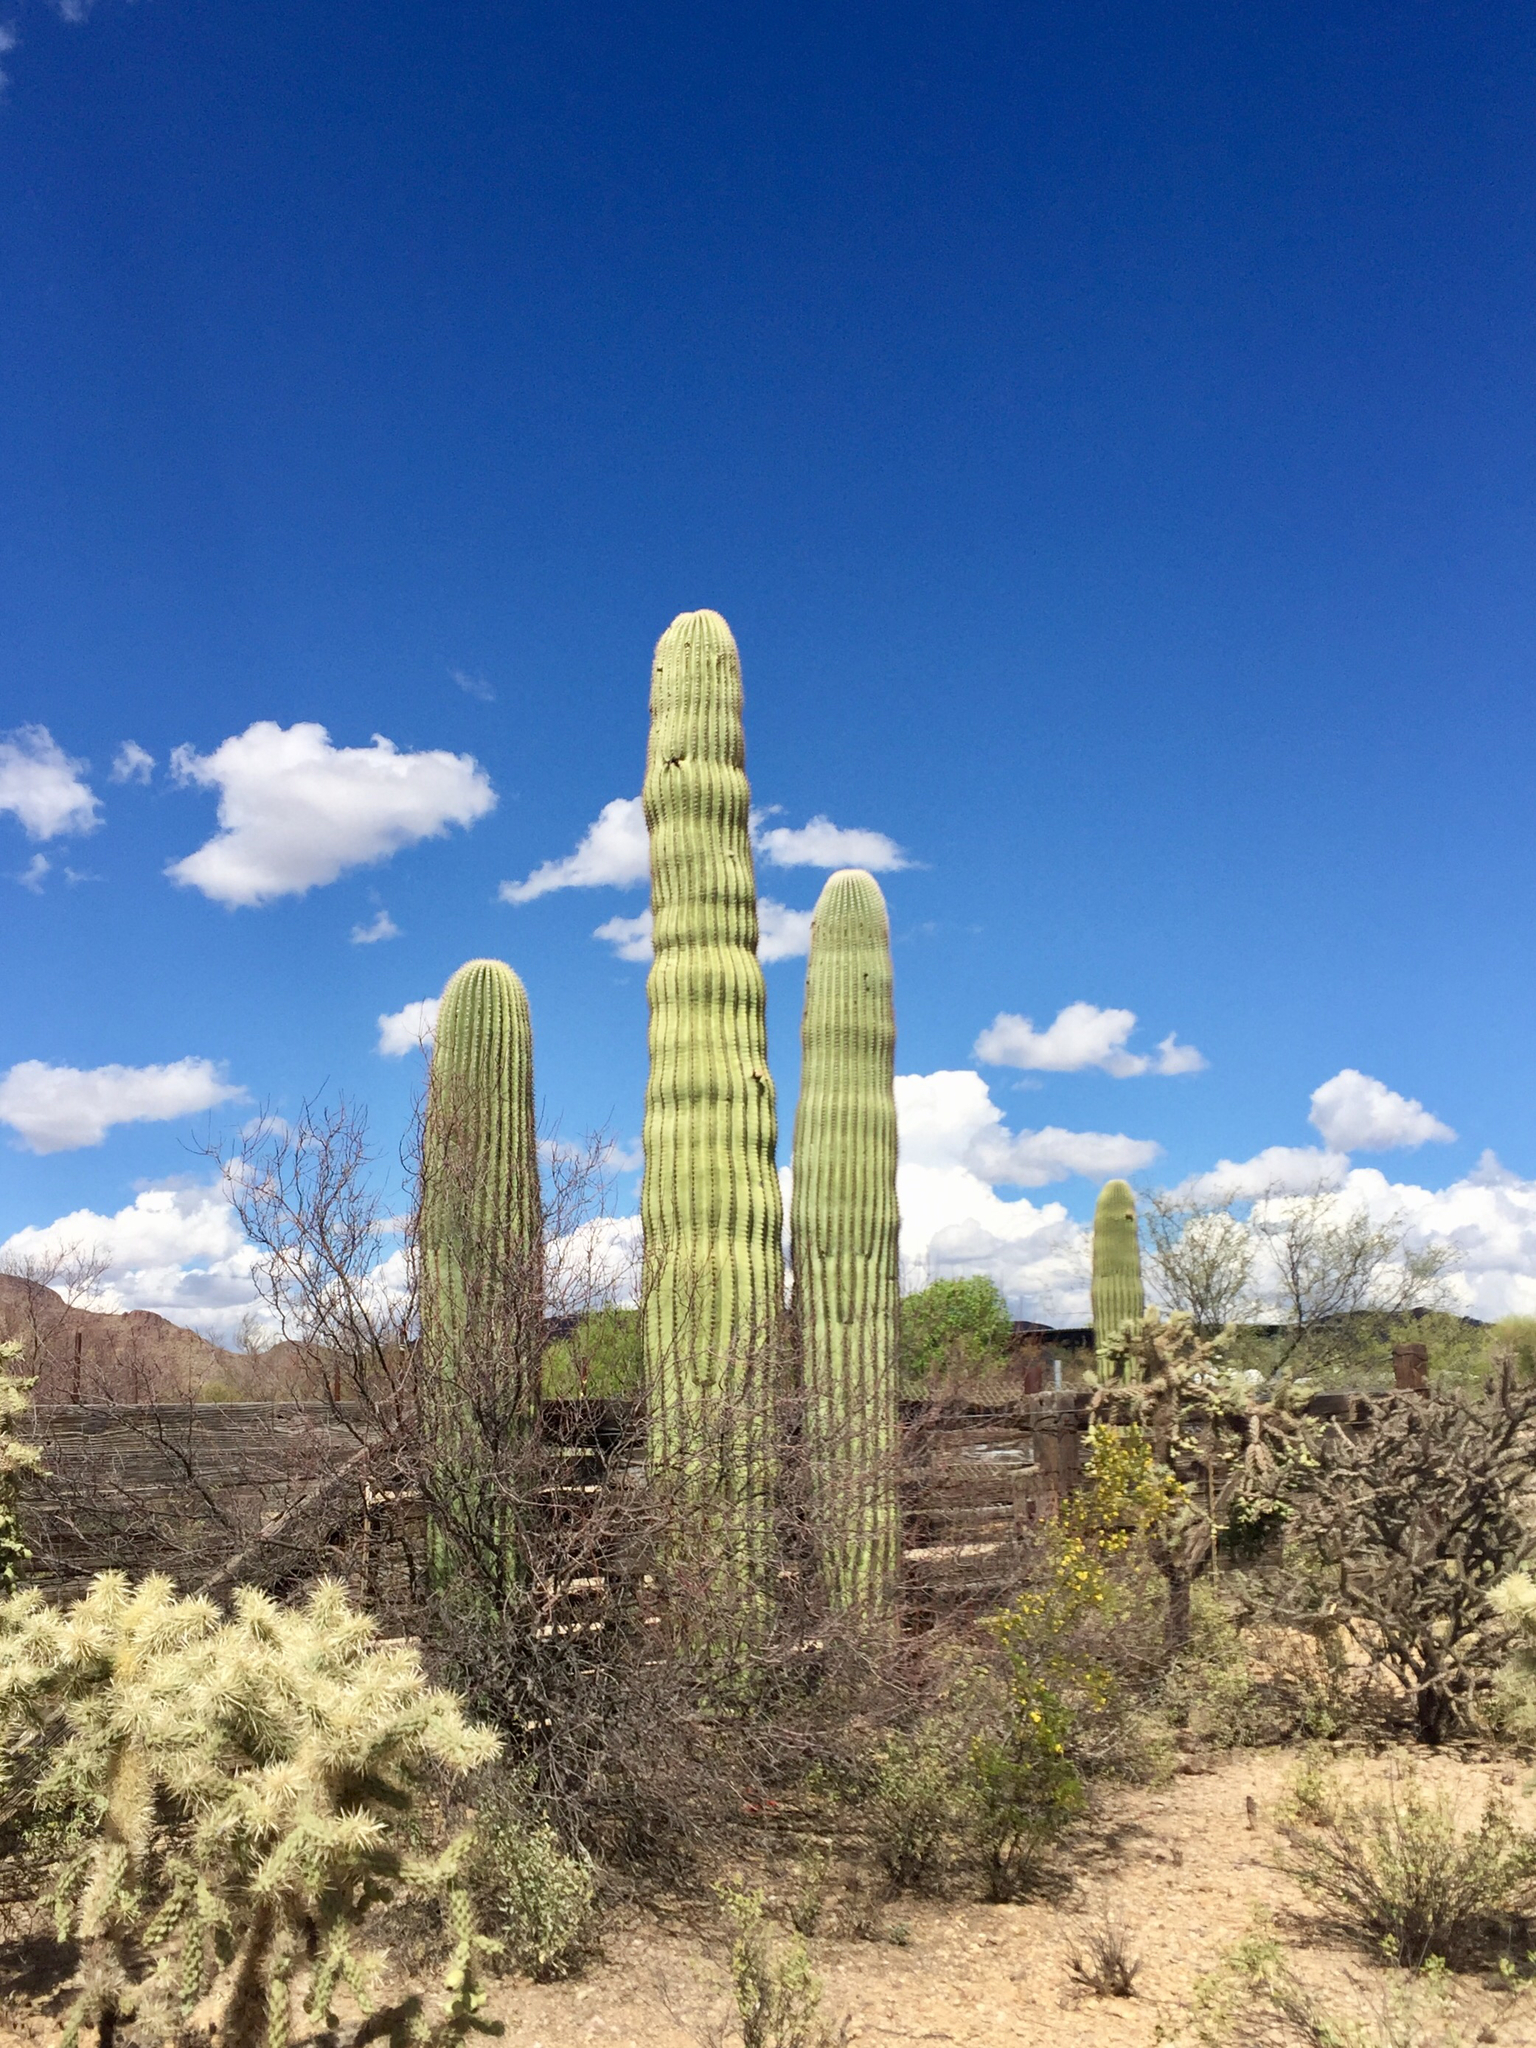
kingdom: Plantae
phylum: Tracheophyta
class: Magnoliopsida
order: Caryophyllales
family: Cactaceae
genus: Carnegiea
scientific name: Carnegiea gigantea
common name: Saguaro
